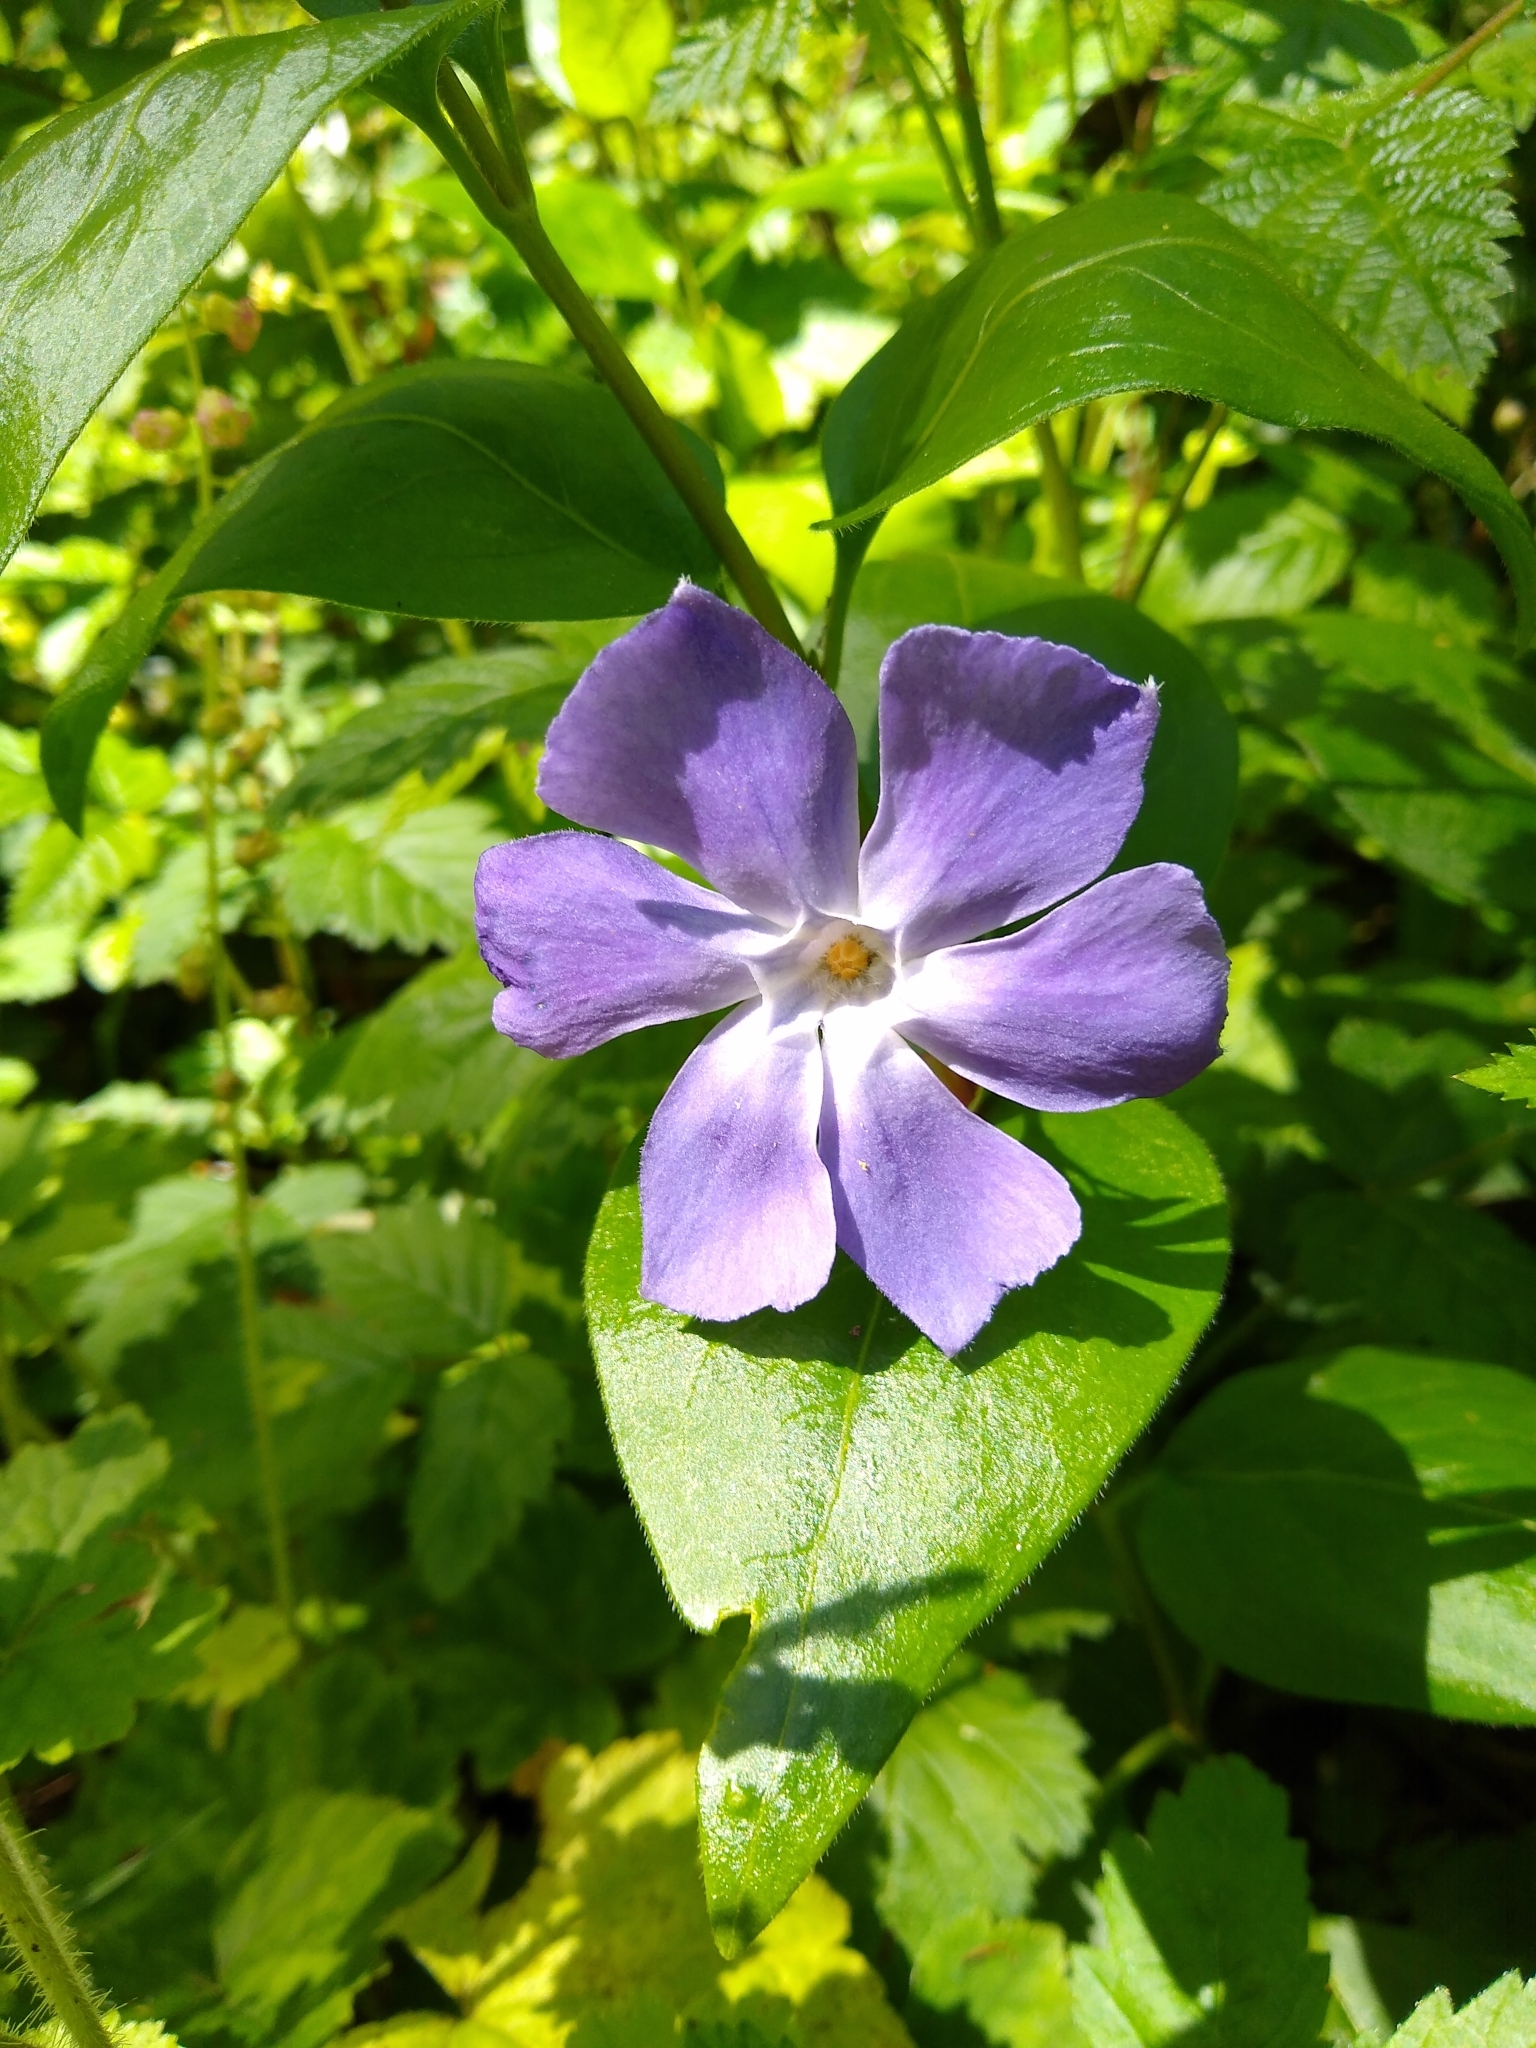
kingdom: Plantae
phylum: Tracheophyta
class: Magnoliopsida
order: Gentianales
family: Apocynaceae
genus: Vinca
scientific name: Vinca major
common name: Greater periwinkle
